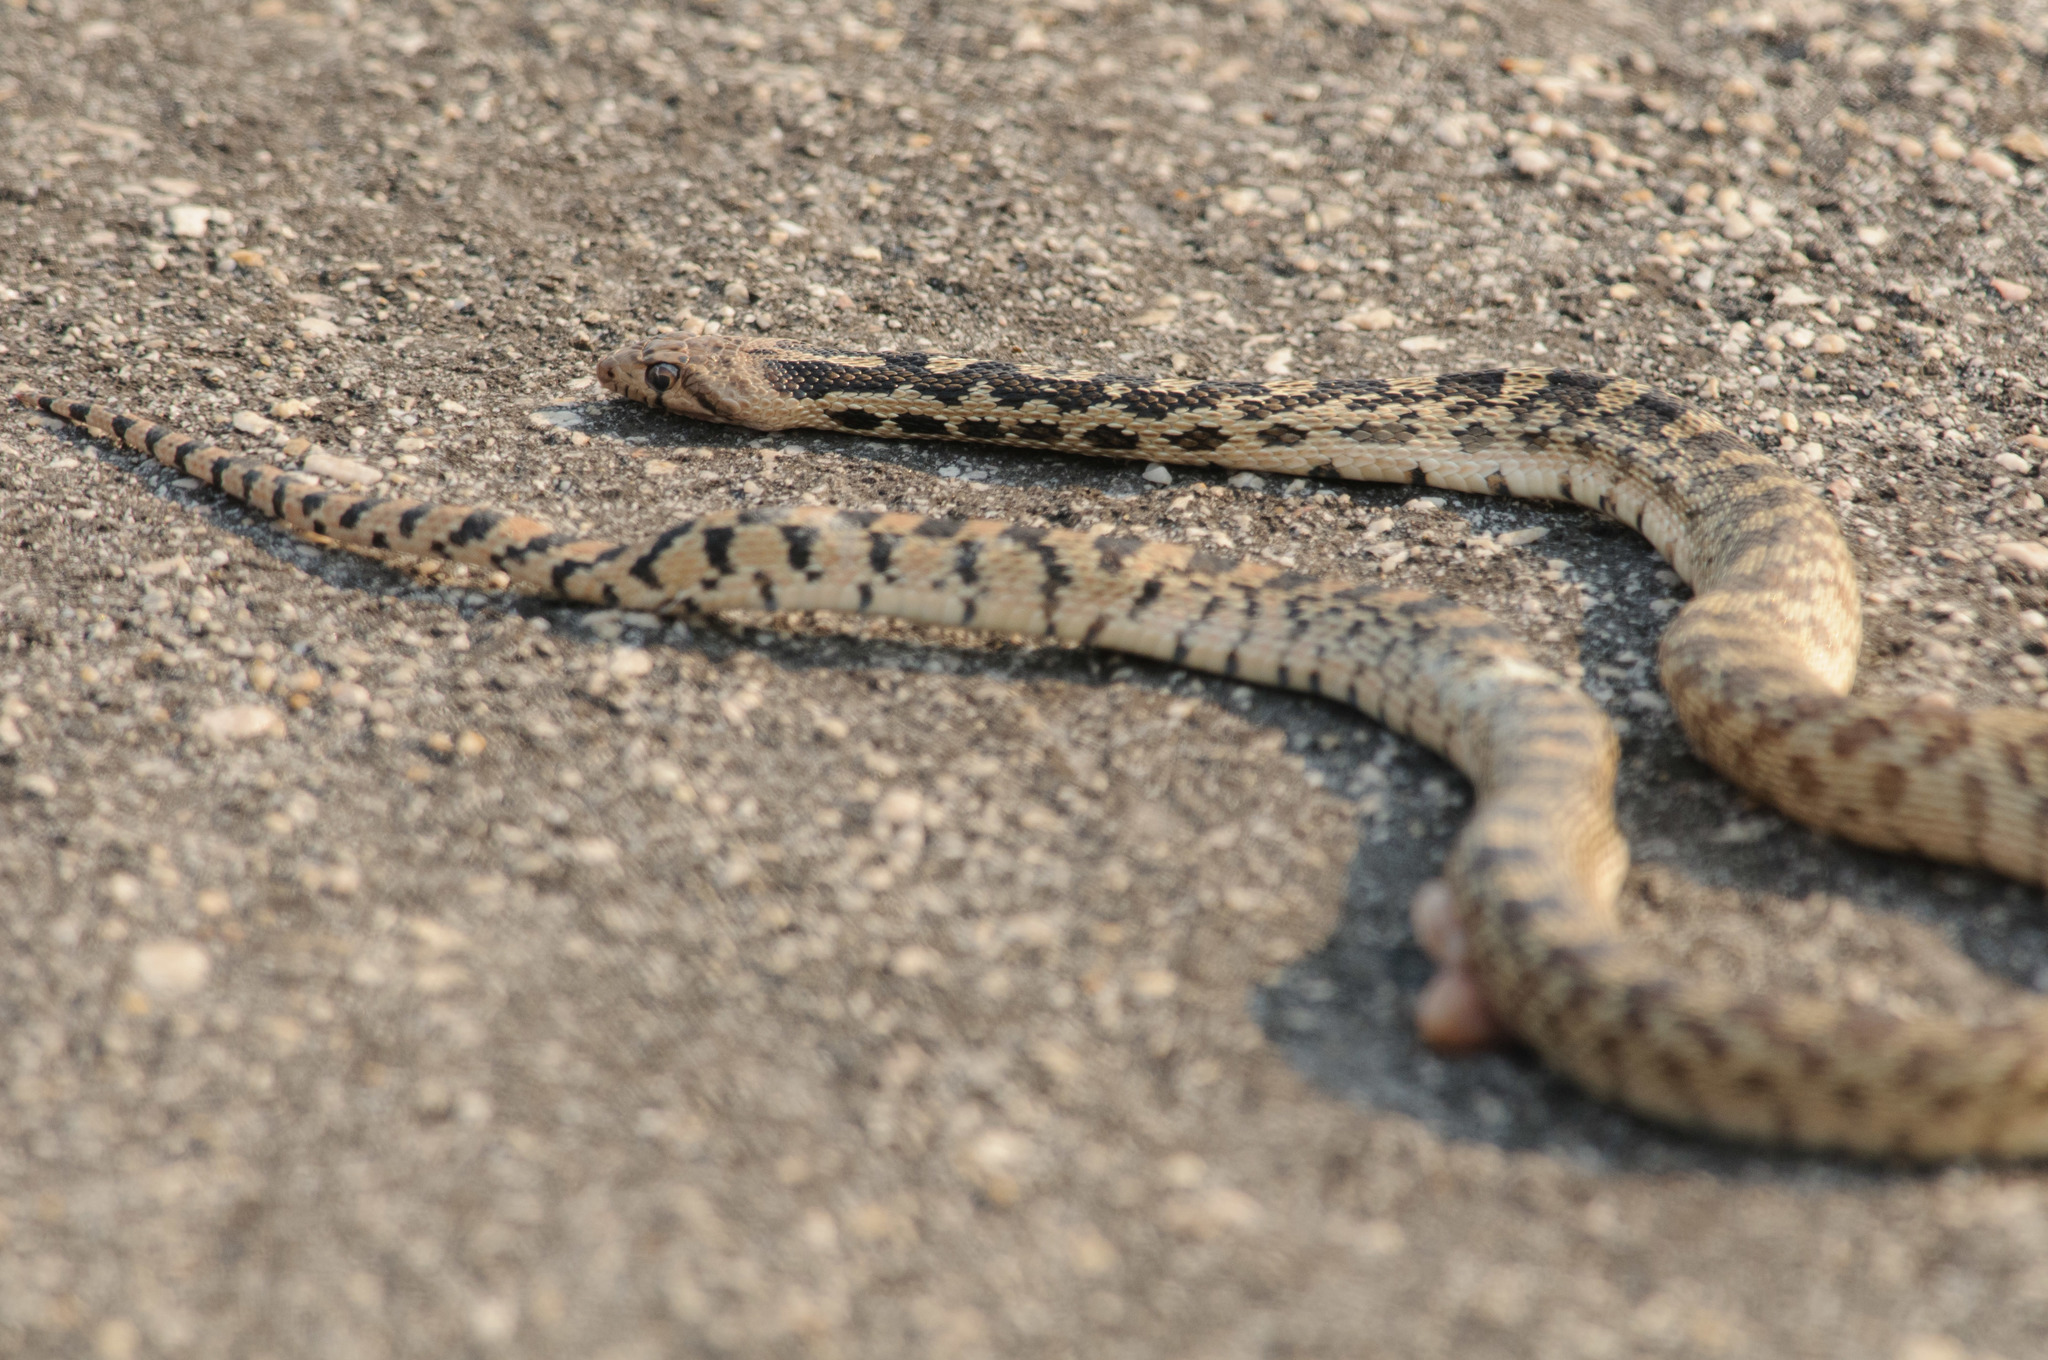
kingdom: Animalia
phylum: Chordata
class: Squamata
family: Colubridae
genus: Pituophis
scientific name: Pituophis catenifer
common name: Gopher snake
